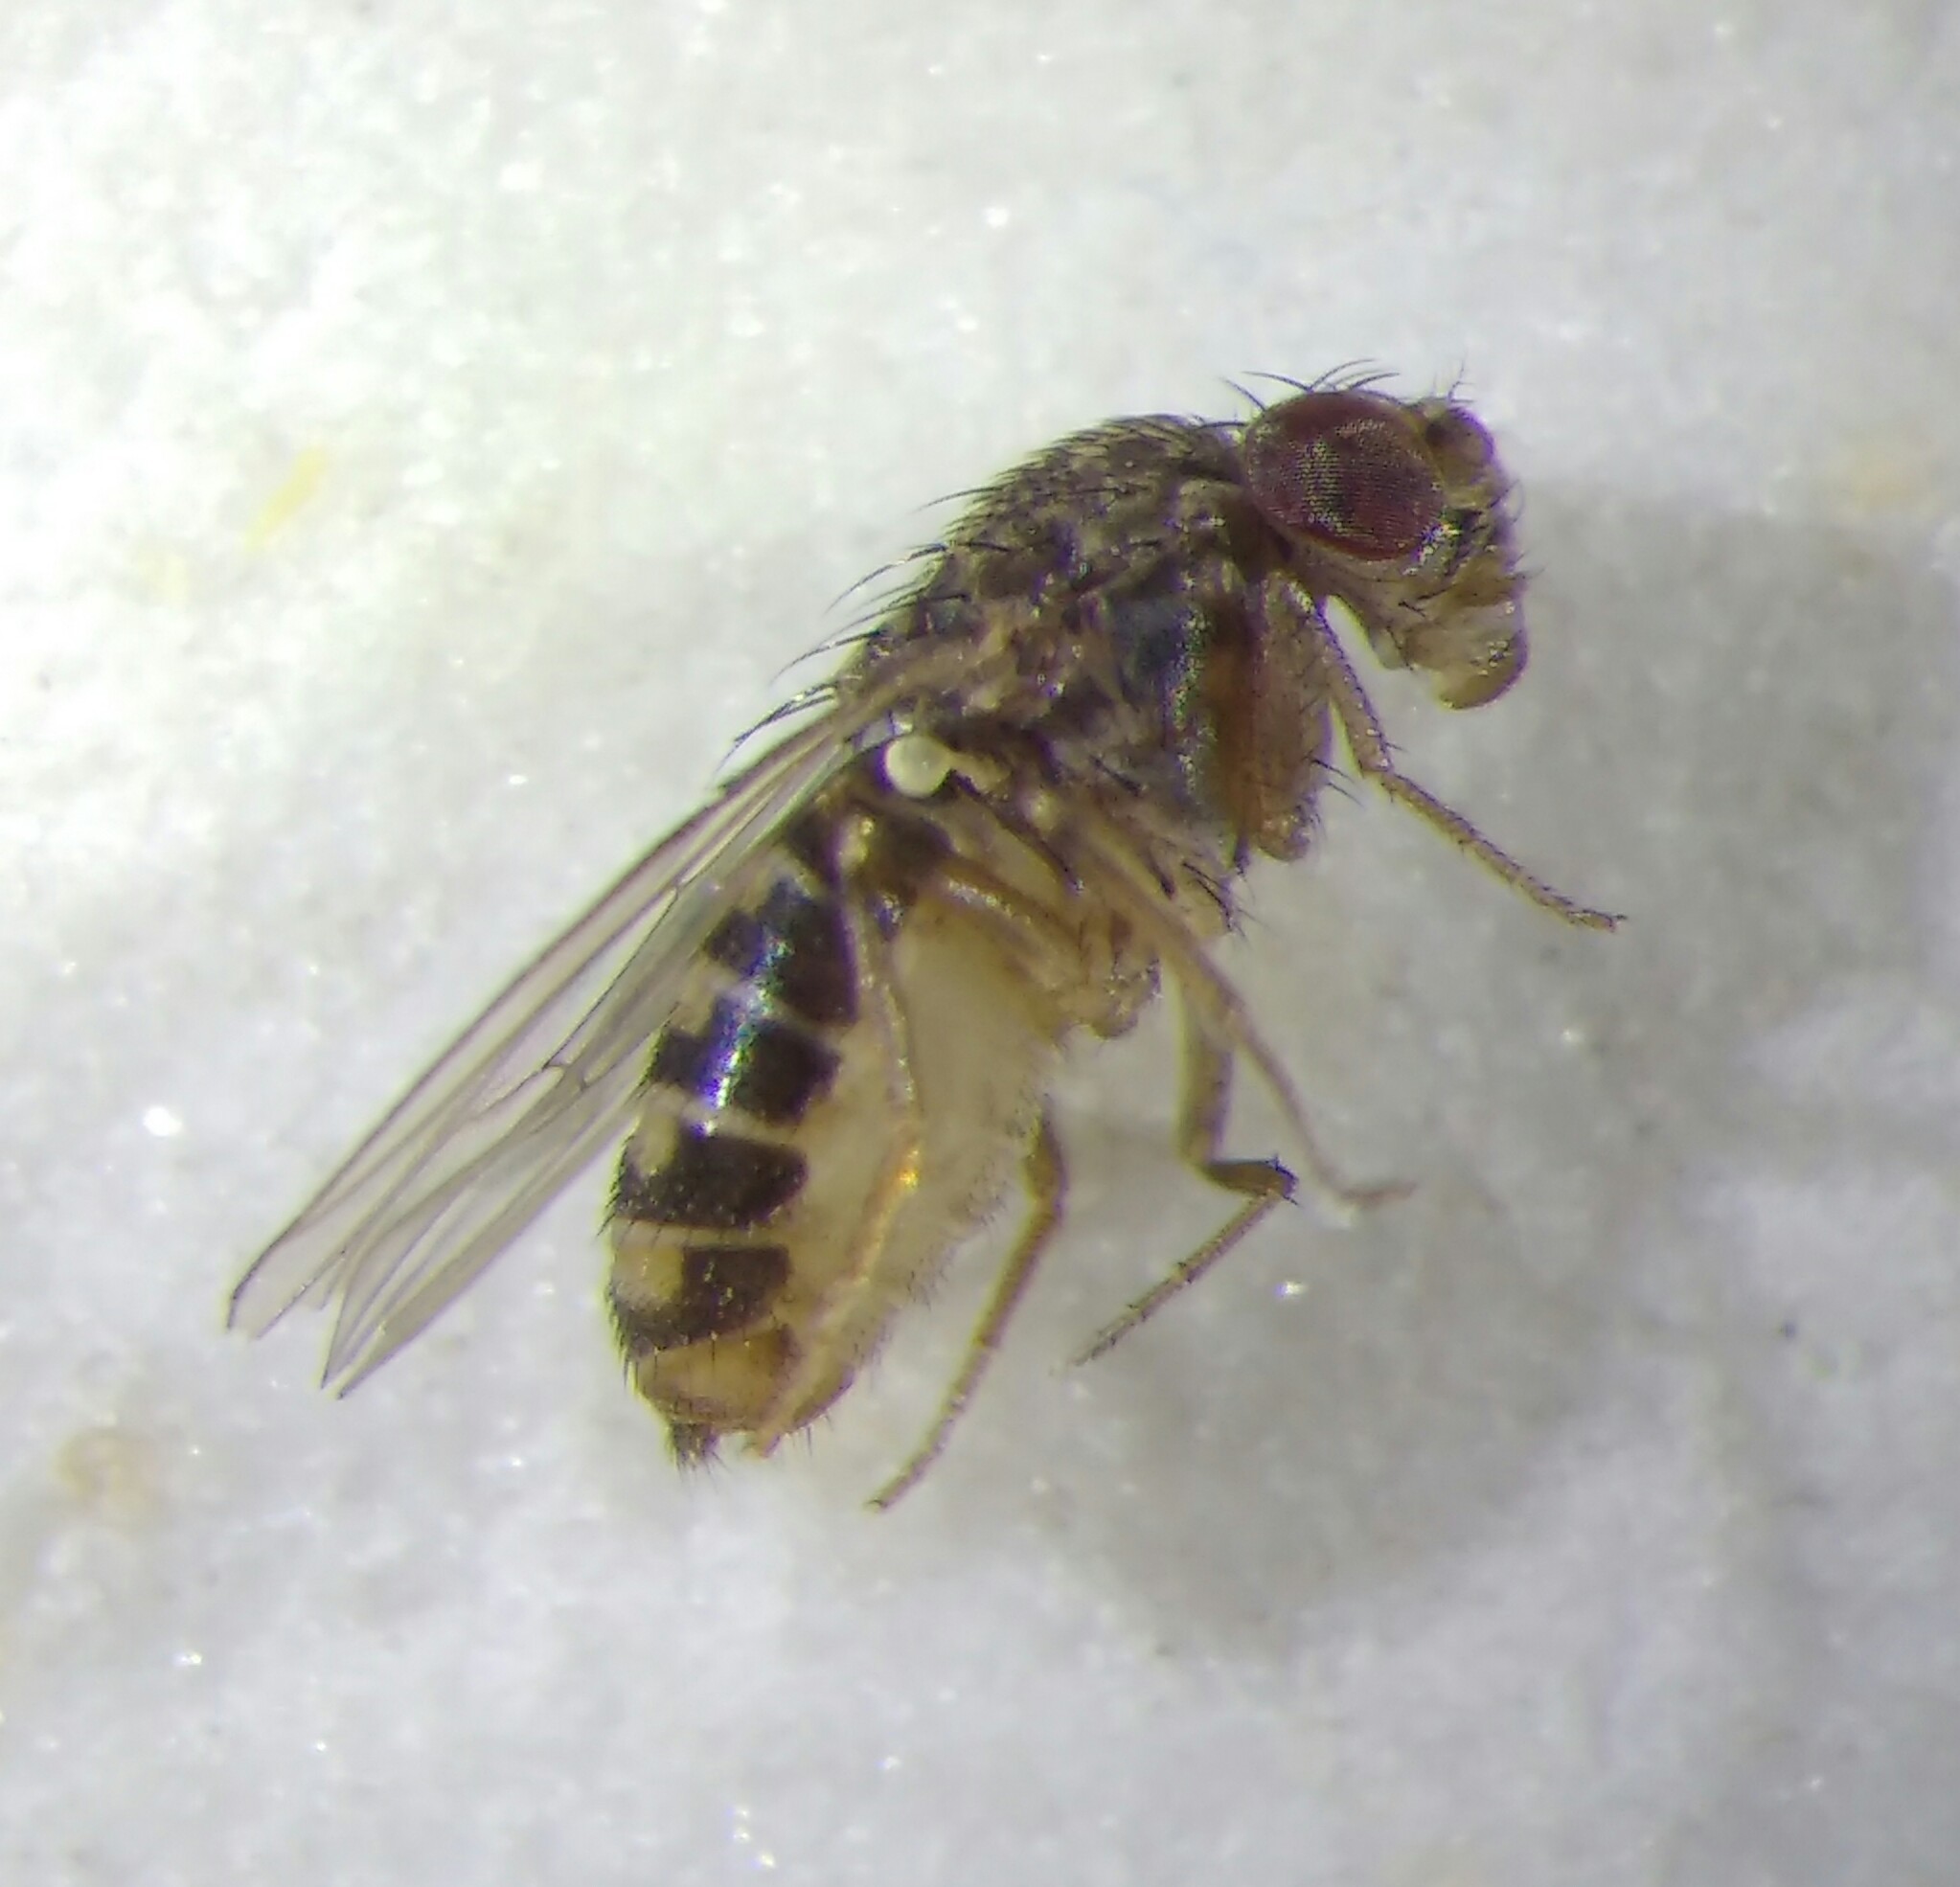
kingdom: Animalia
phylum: Arthropoda
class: Insecta
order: Diptera
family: Drosophilidae
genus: Drosophila
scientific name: Drosophila hydei
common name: Pomace fly
